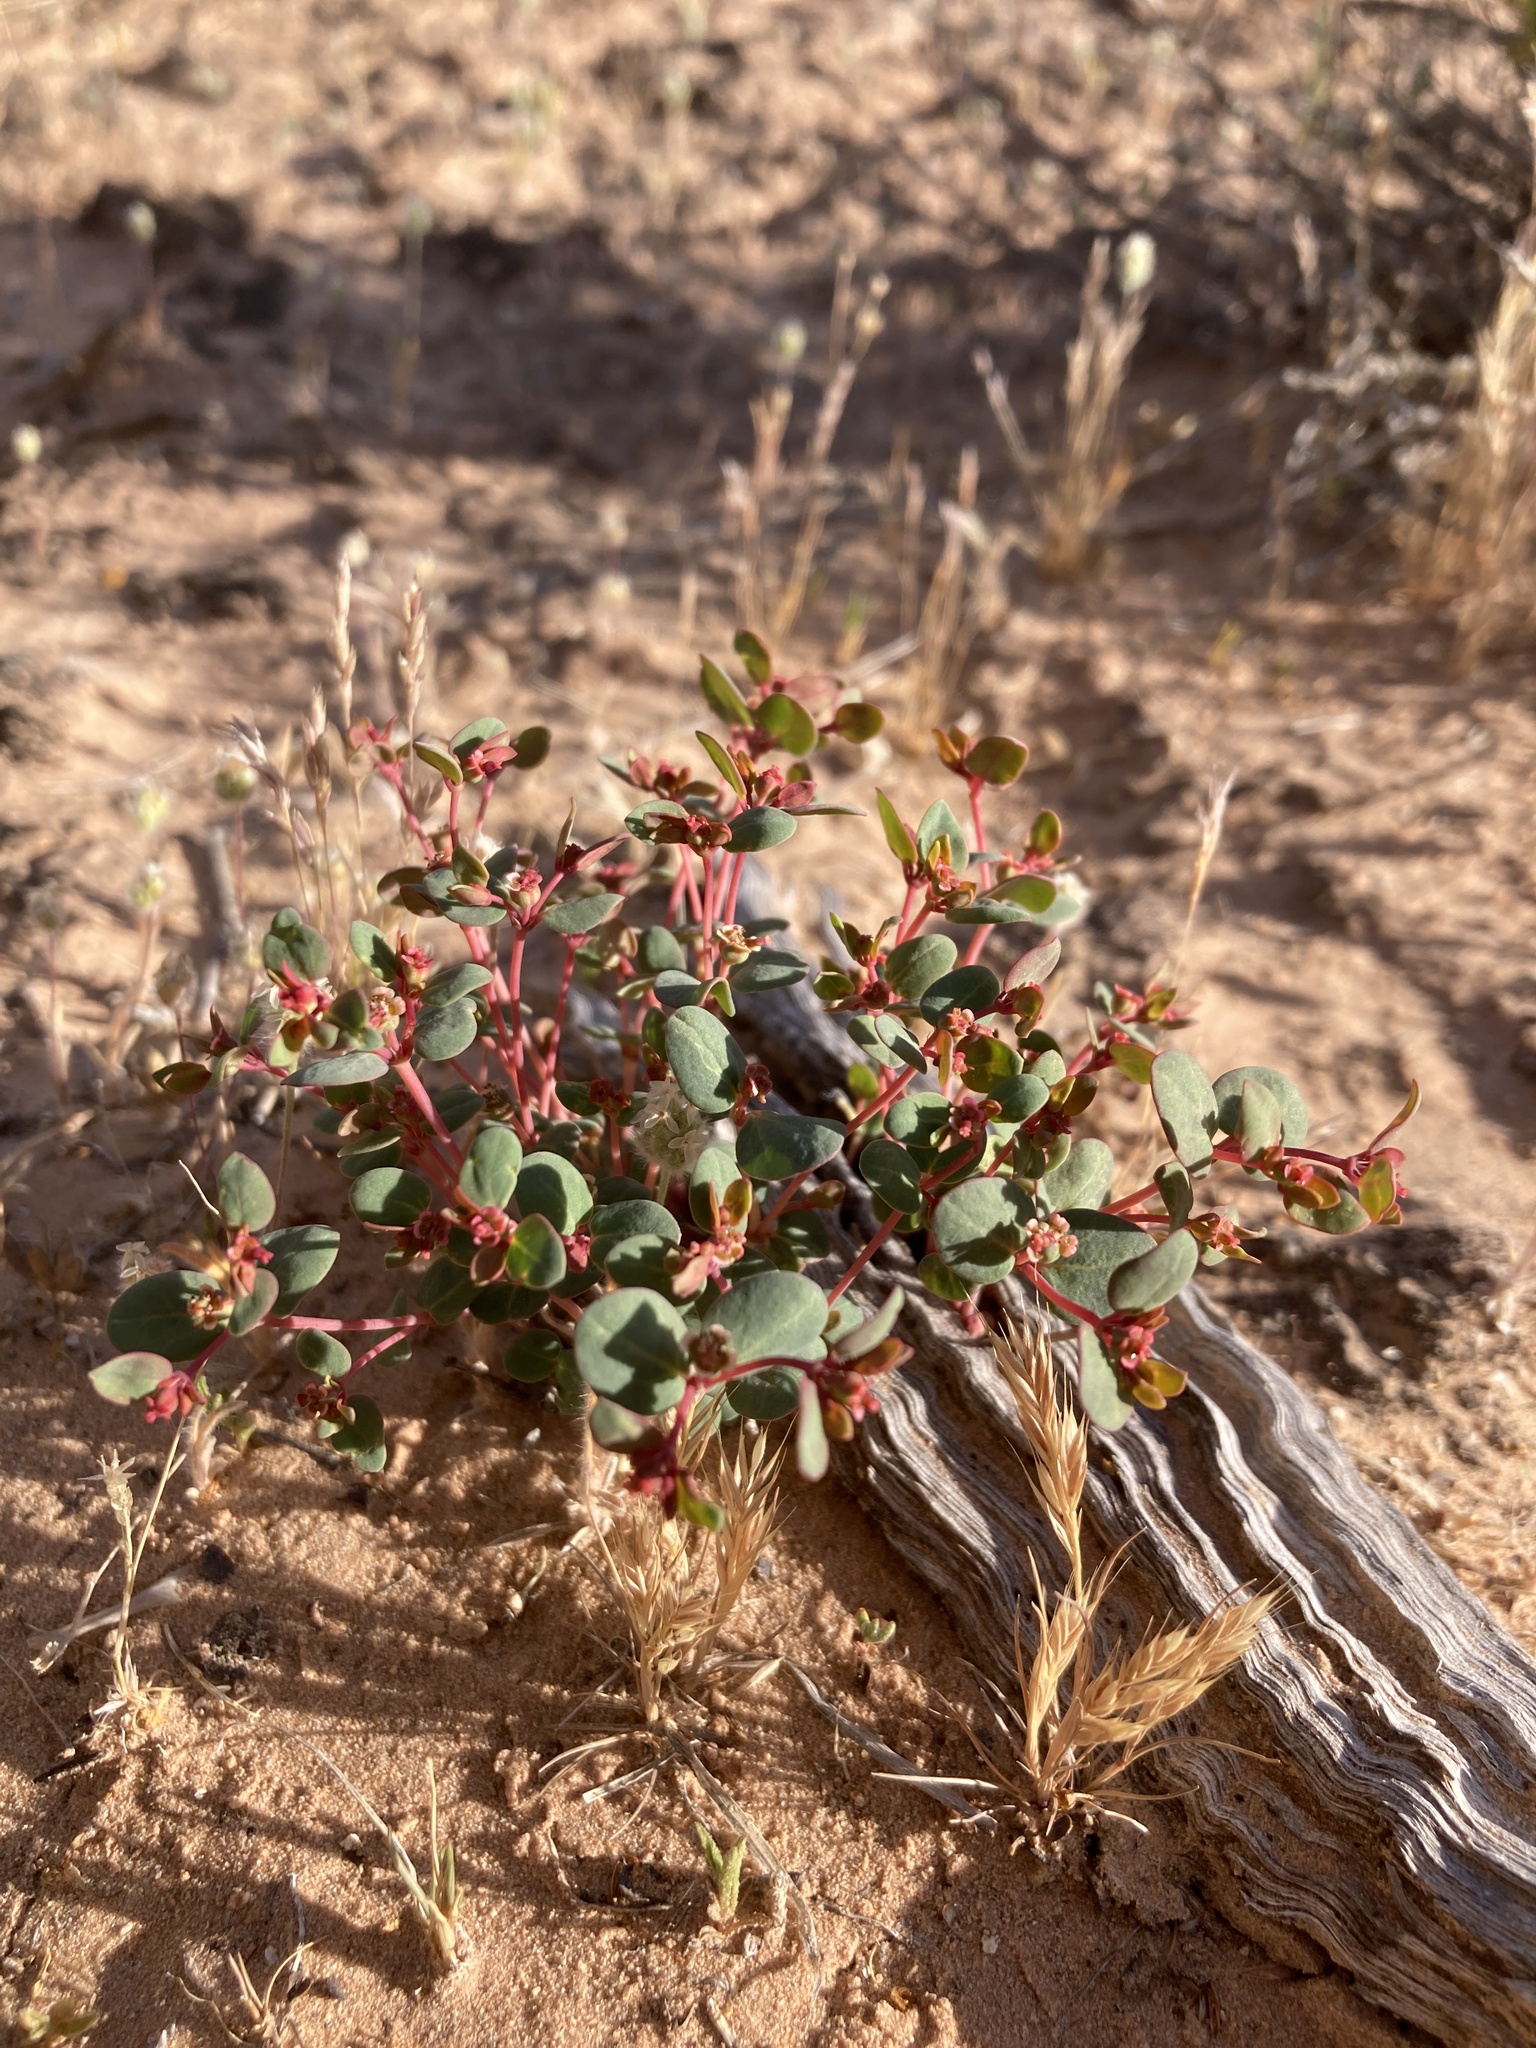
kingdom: Plantae
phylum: Tracheophyta
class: Magnoliopsida
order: Malpighiales
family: Euphorbiaceae
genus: Euphorbia
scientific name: Euphorbia fendleri
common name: Fendler's euphorbia
